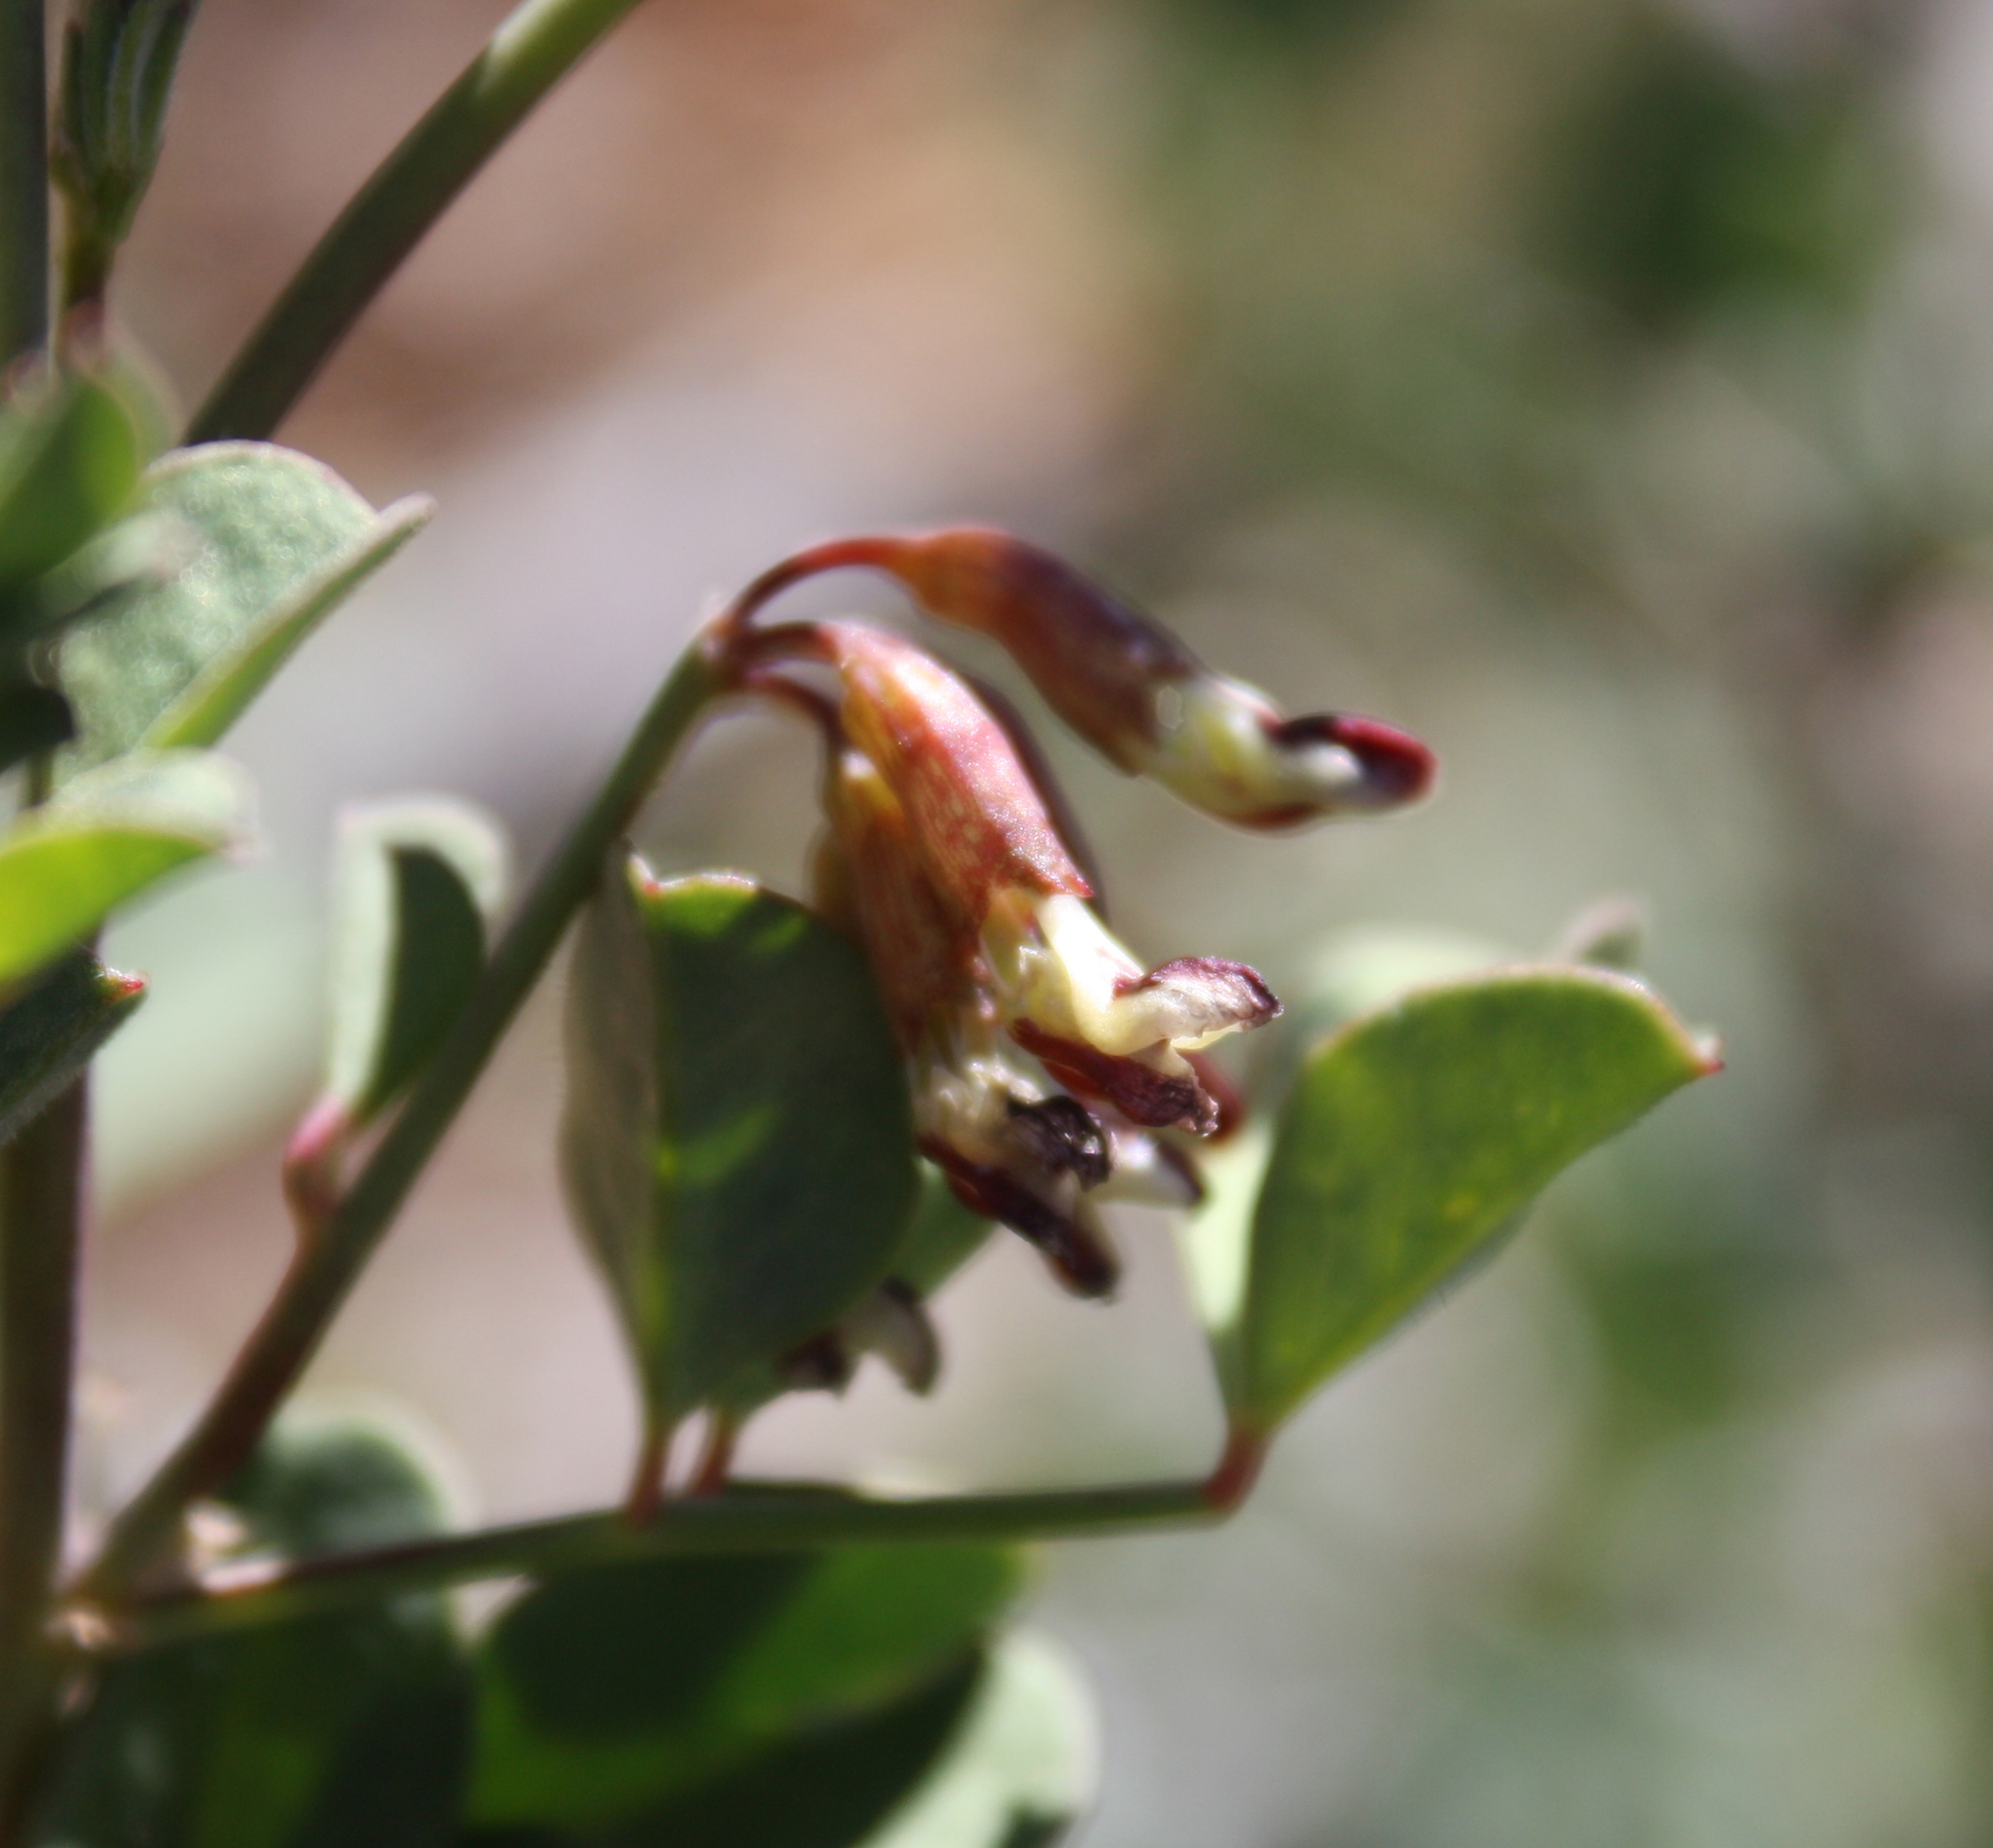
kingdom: Plantae
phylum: Tracheophyta
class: Magnoliopsida
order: Fabales
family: Fabaceae
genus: Hosackia
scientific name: Hosackia crassifolia
